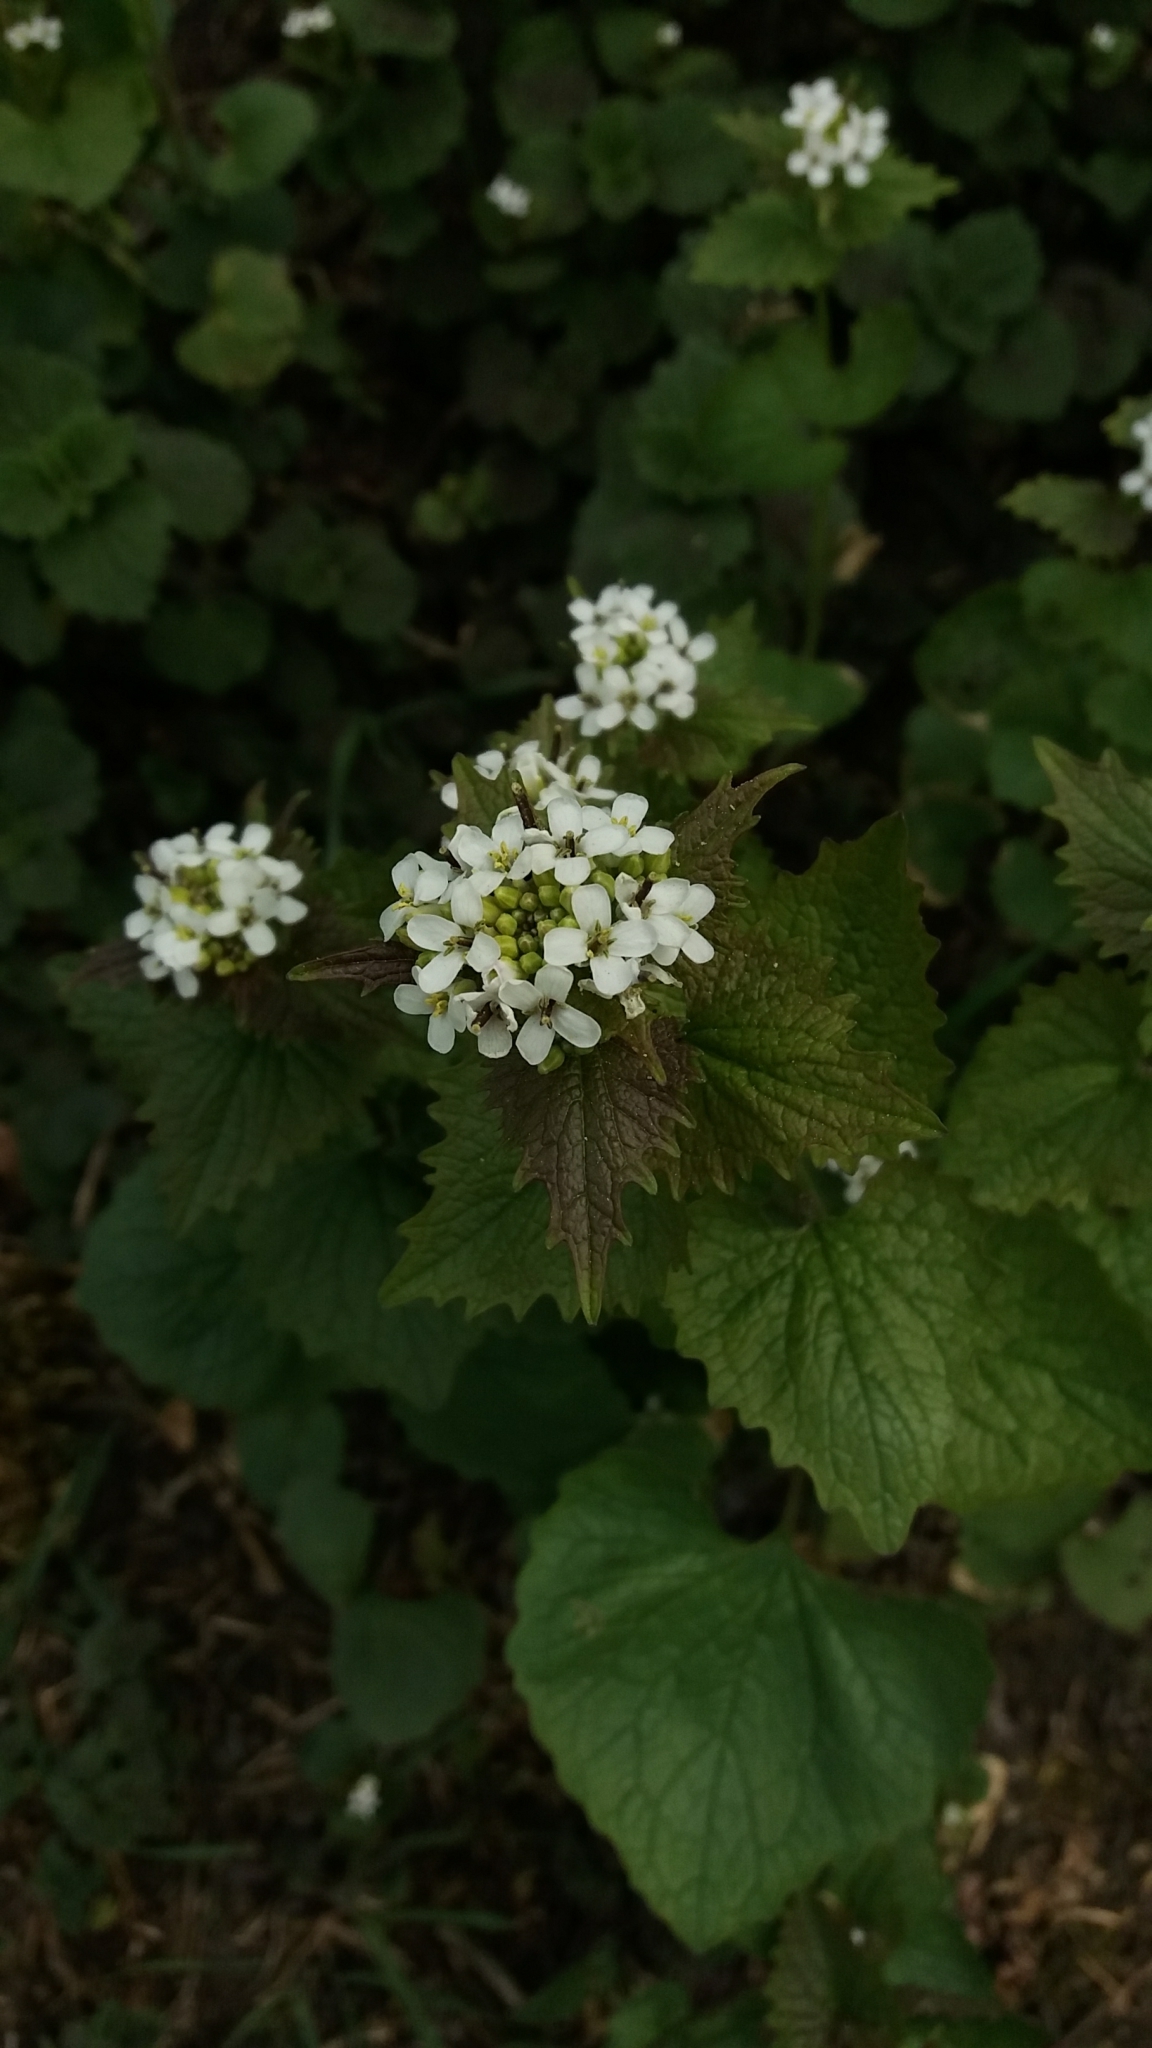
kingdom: Plantae
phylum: Tracheophyta
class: Magnoliopsida
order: Brassicales
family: Brassicaceae
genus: Alliaria
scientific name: Alliaria petiolata
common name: Garlic mustard
